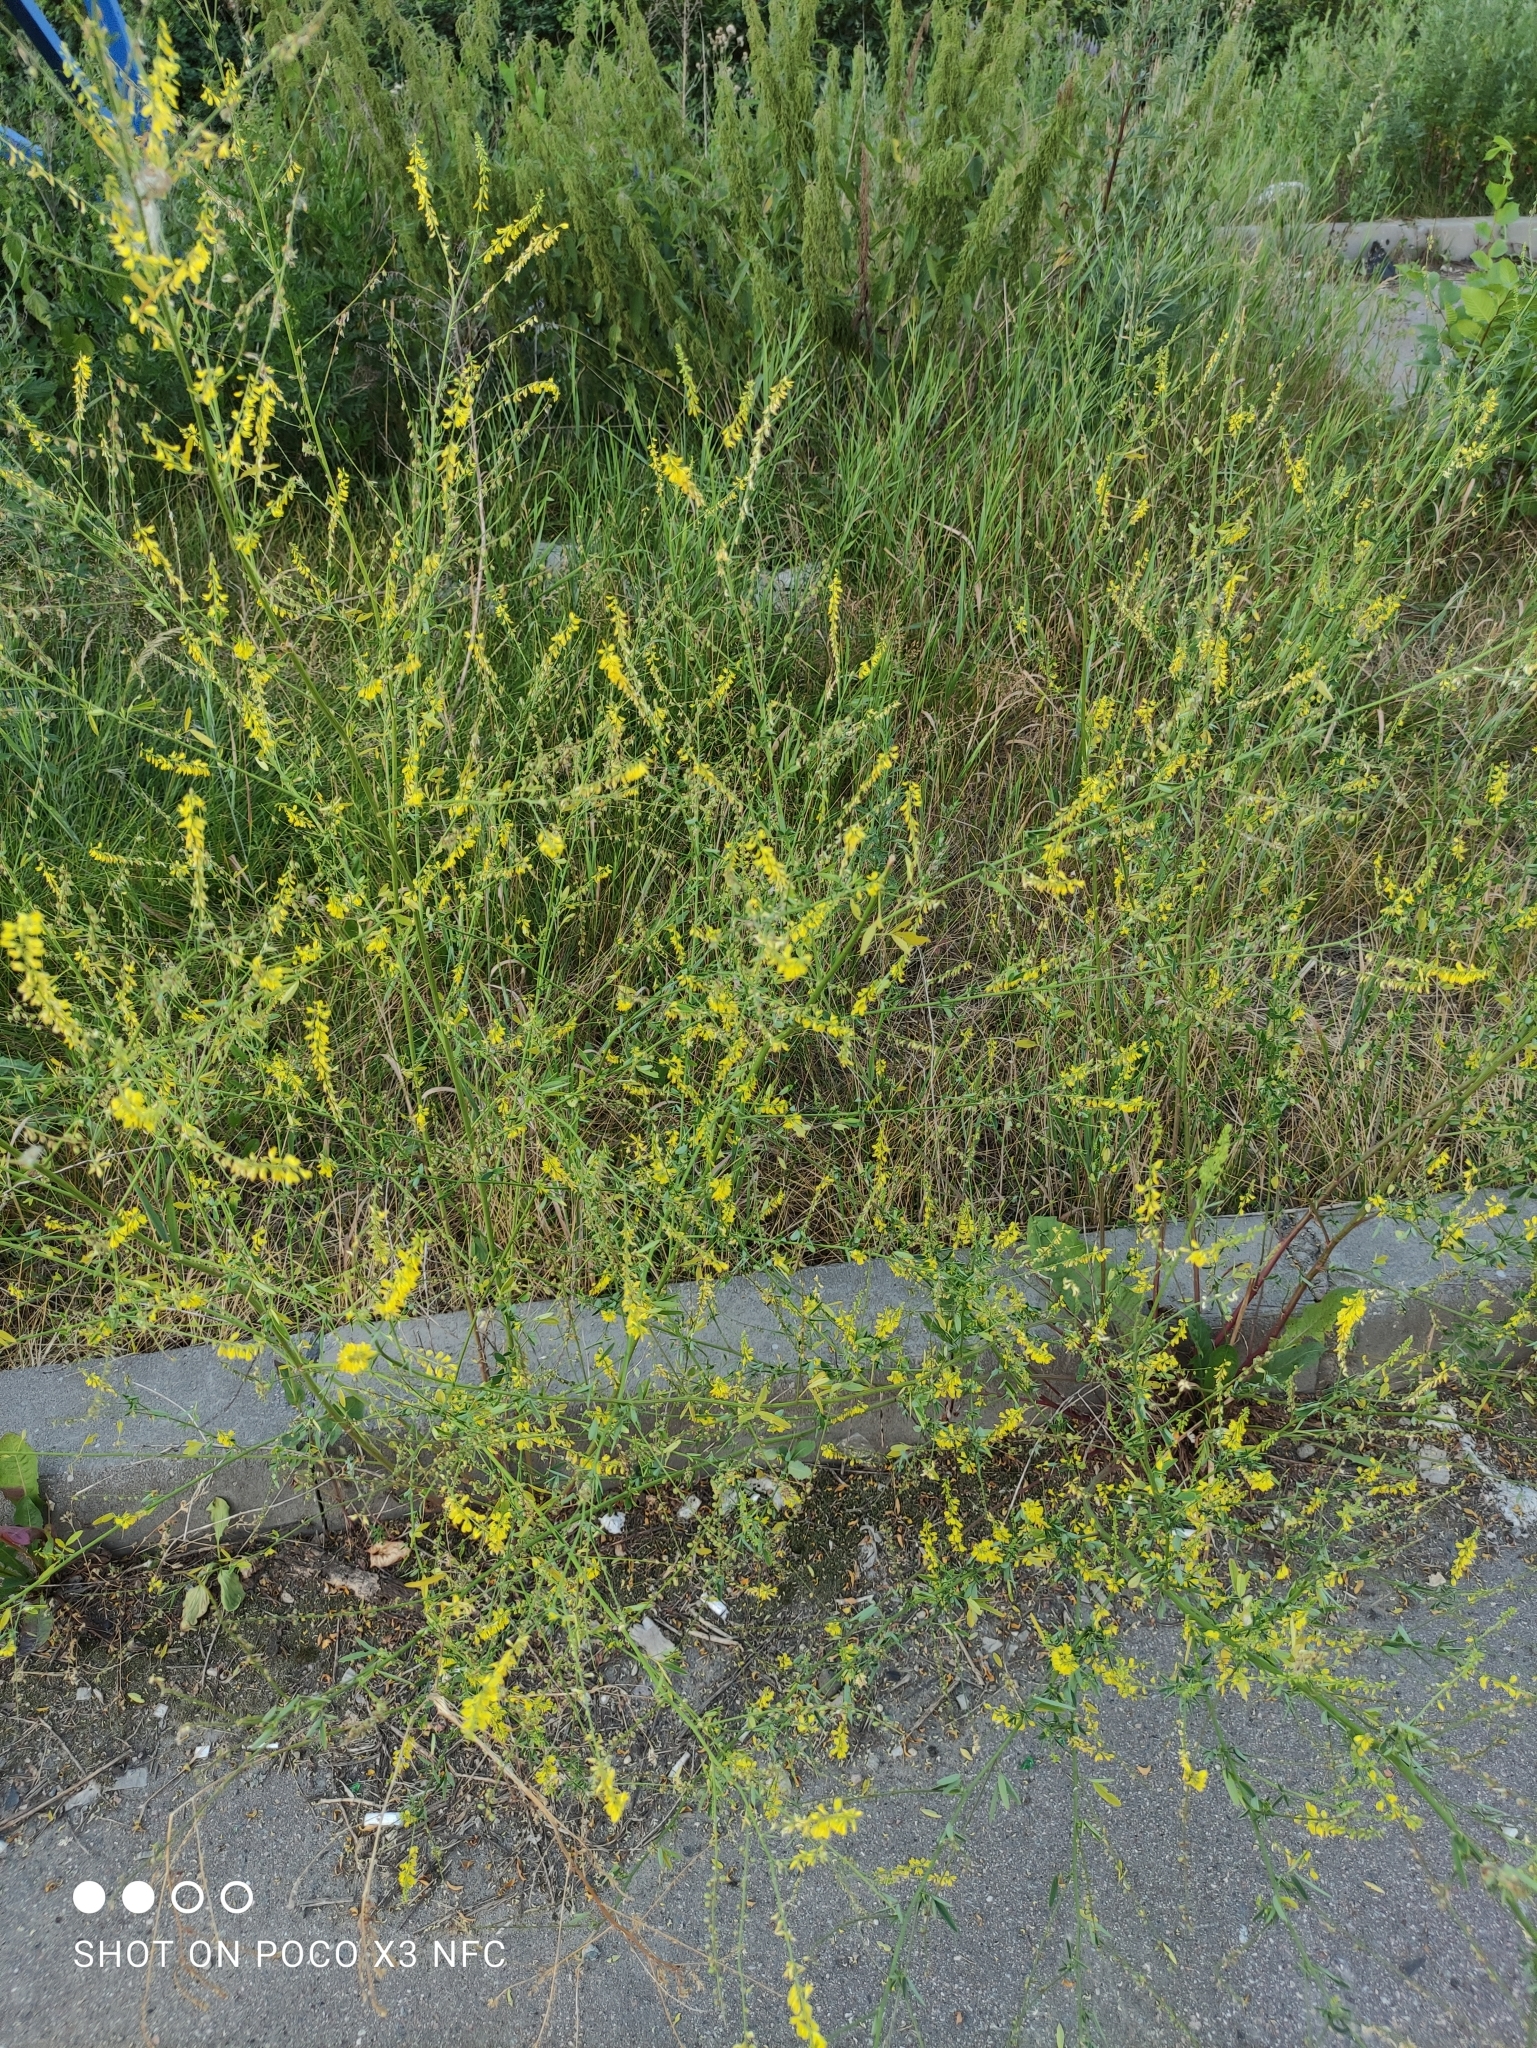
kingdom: Plantae
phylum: Tracheophyta
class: Magnoliopsida
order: Fabales
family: Fabaceae
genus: Melilotus
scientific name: Melilotus officinalis
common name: Sweetclover
